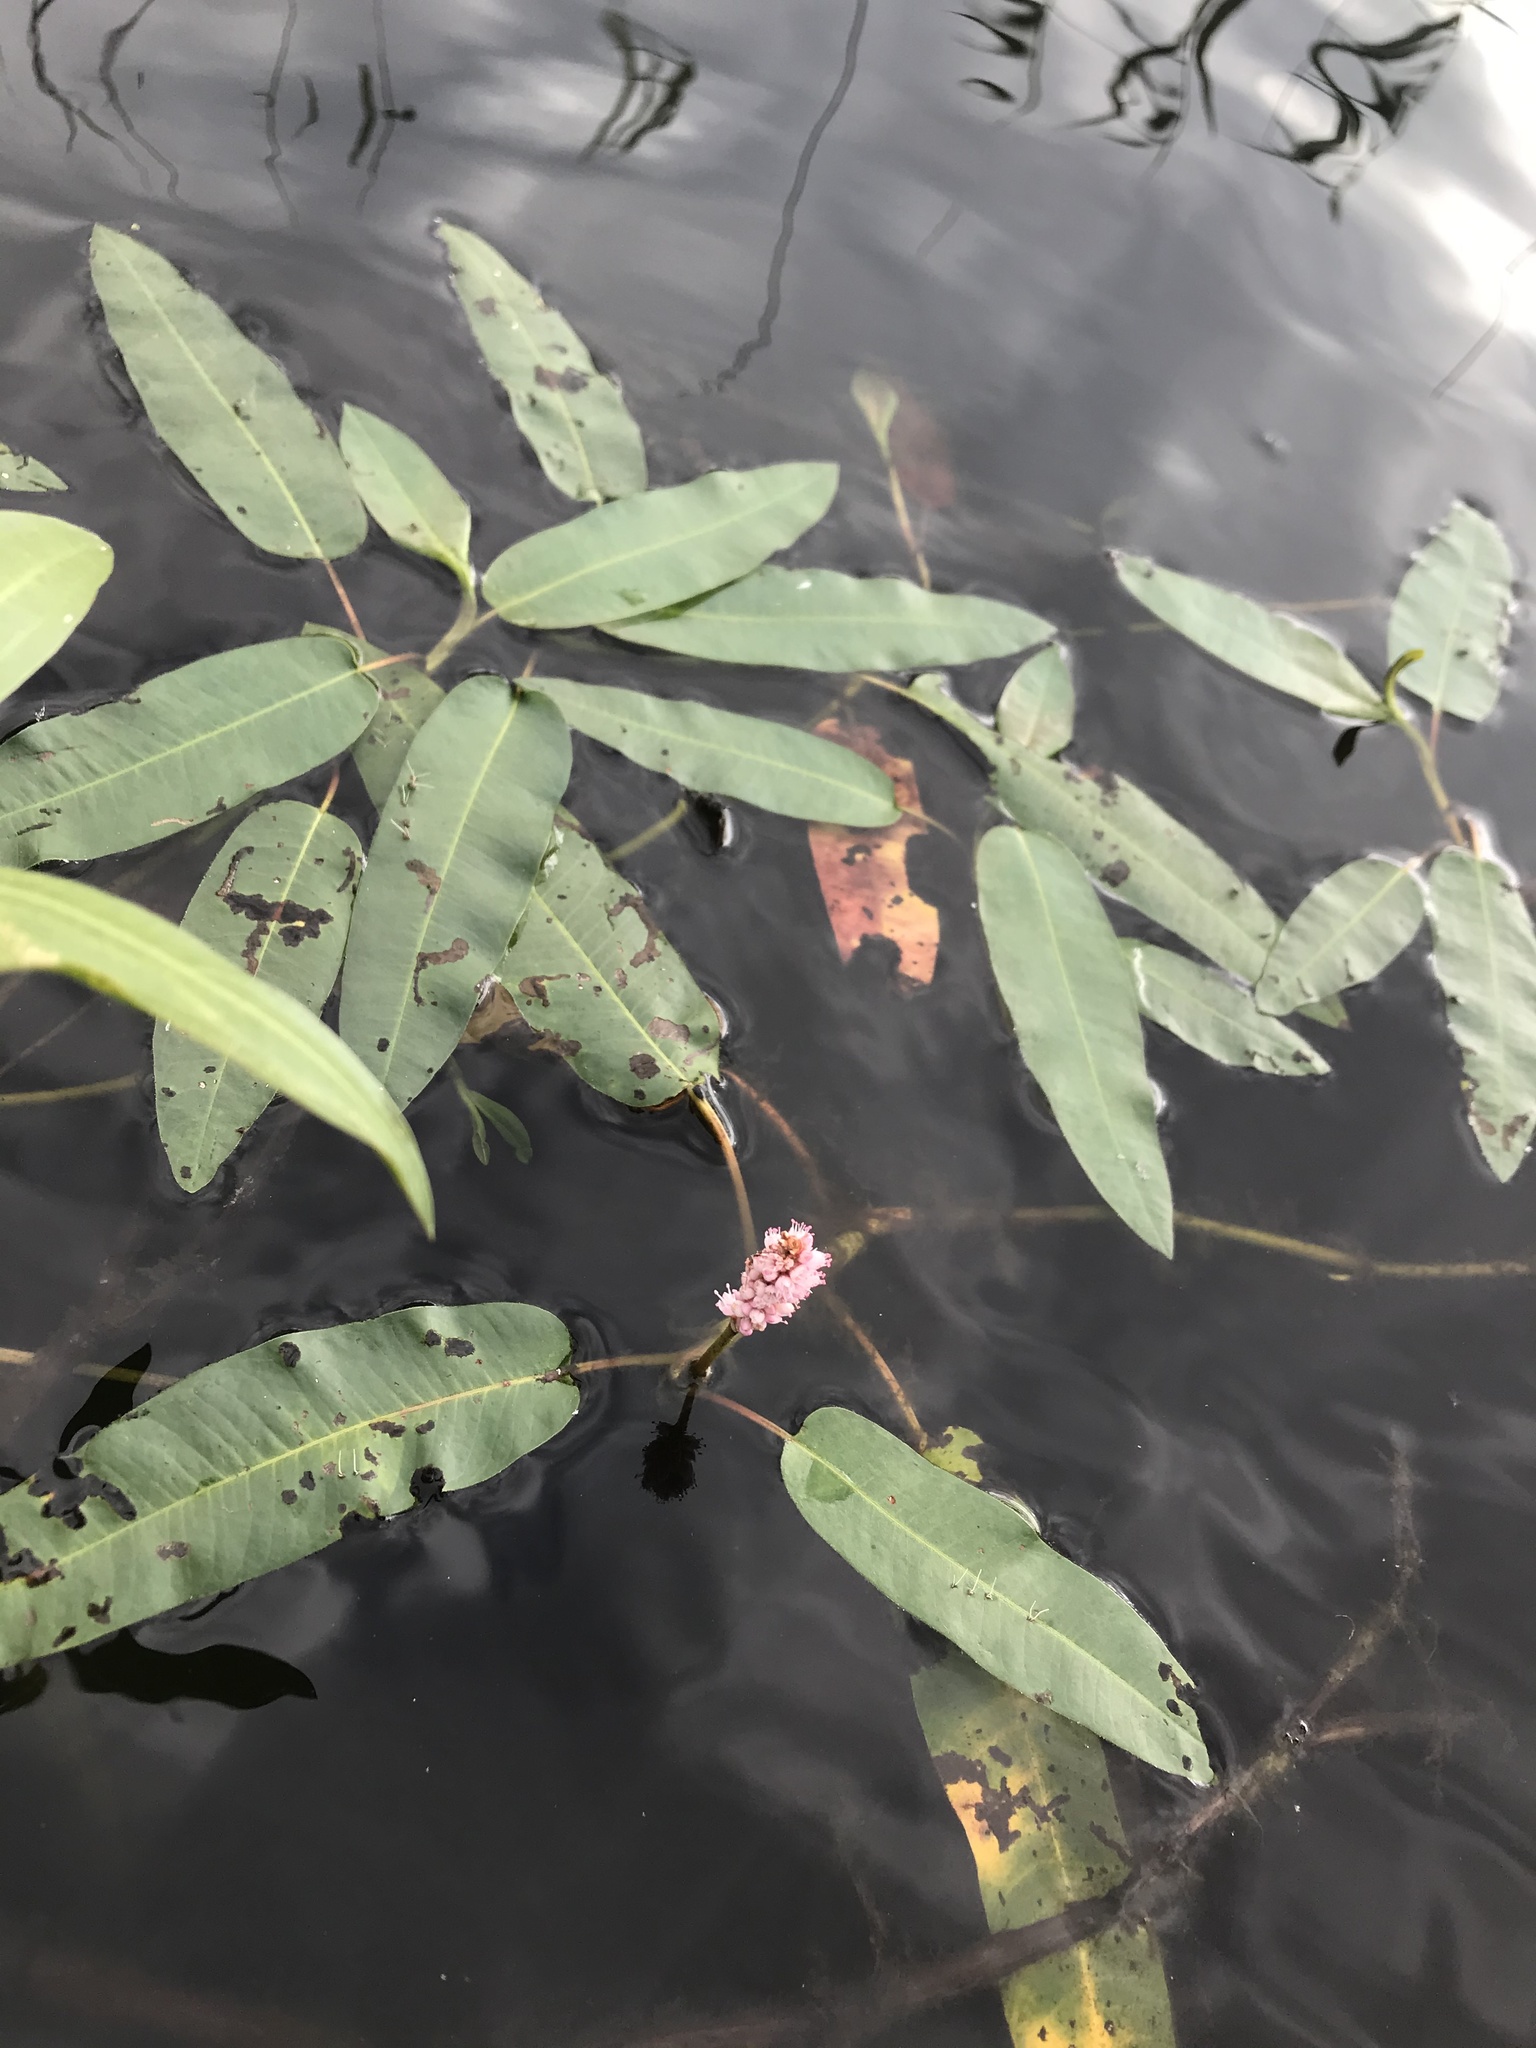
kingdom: Plantae
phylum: Tracheophyta
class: Magnoliopsida
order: Caryophyllales
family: Polygonaceae
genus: Persicaria
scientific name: Persicaria amphibia
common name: Amphibious bistort
